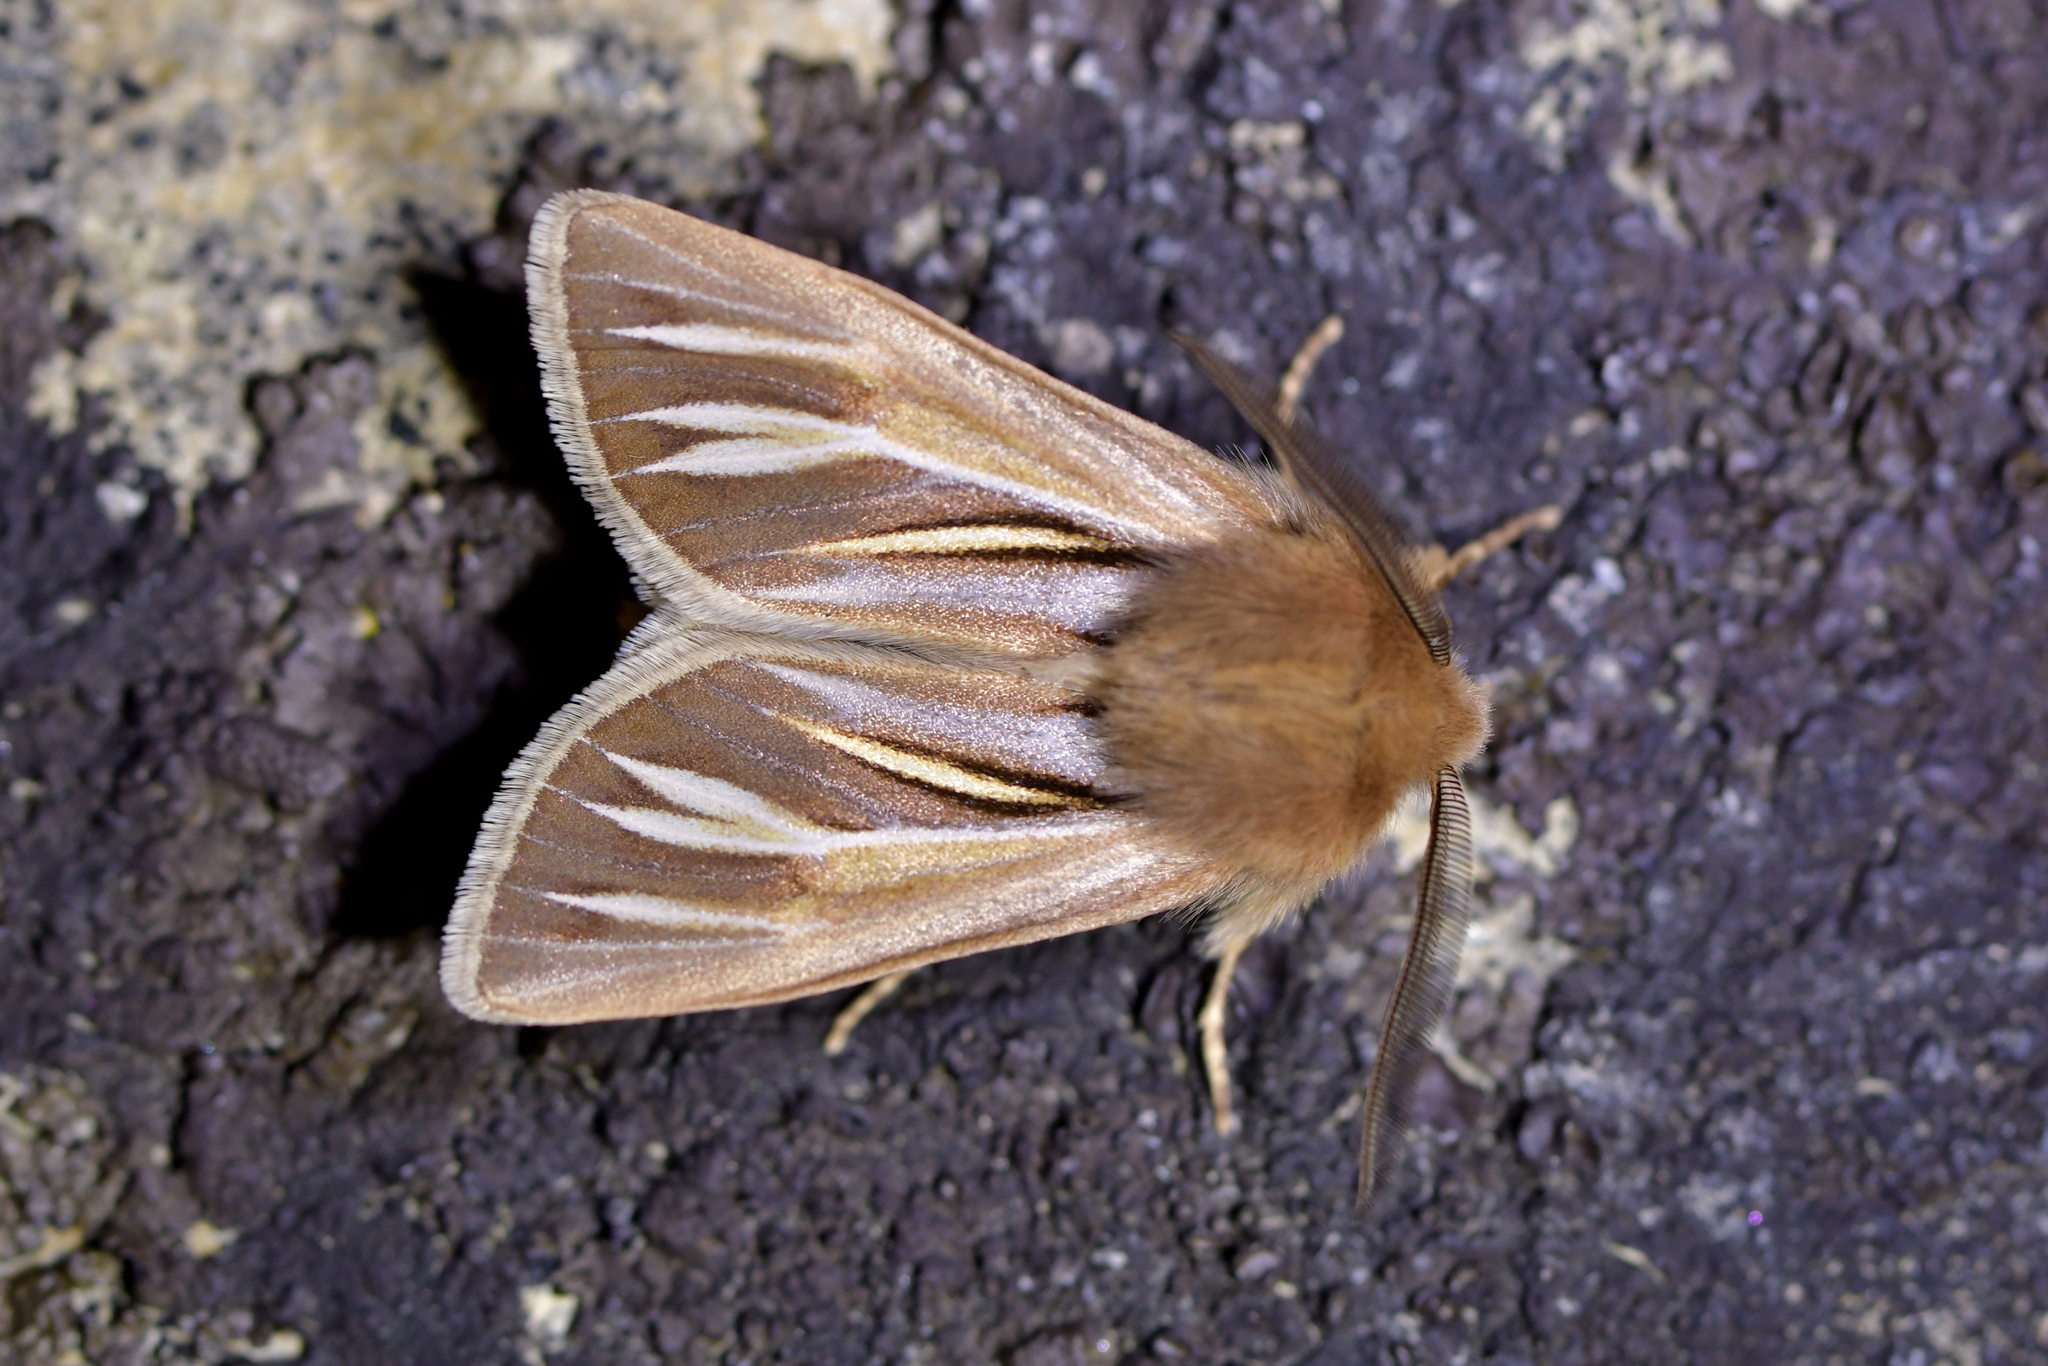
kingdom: Animalia
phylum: Arthropoda
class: Insecta
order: Lepidoptera
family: Noctuidae
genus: Ichneutica
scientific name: Ichneutica caraunias
